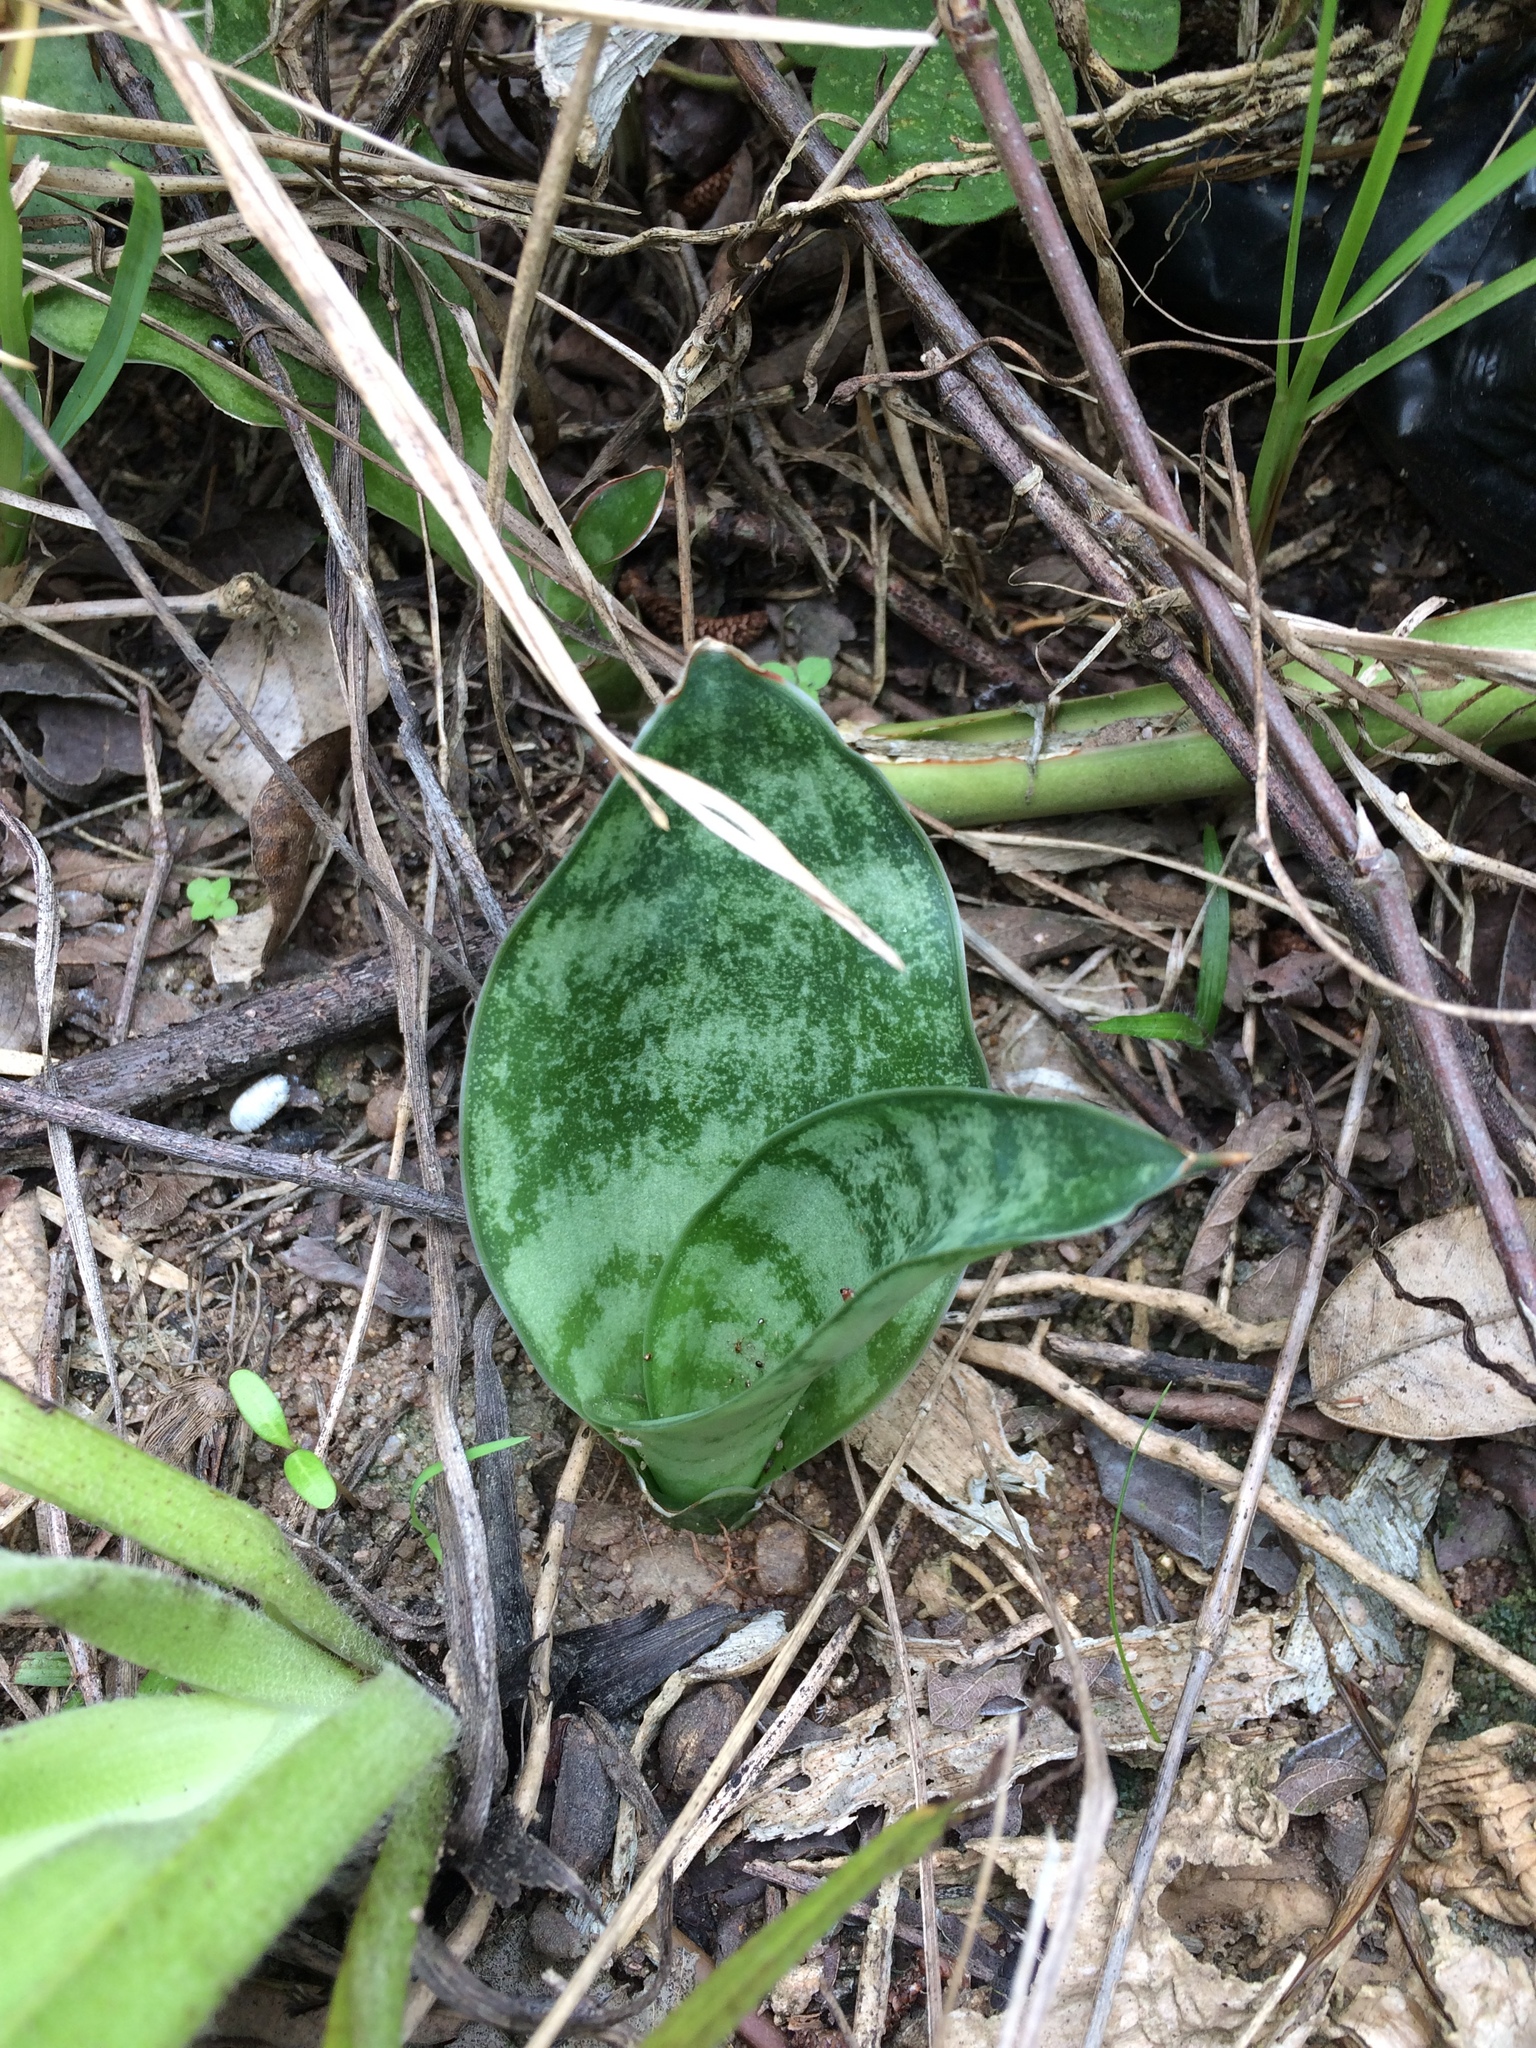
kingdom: Plantae
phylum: Tracheophyta
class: Liliopsida
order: Asparagales
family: Asparagaceae
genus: Dracaena
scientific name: Dracaena hyacinthoides
